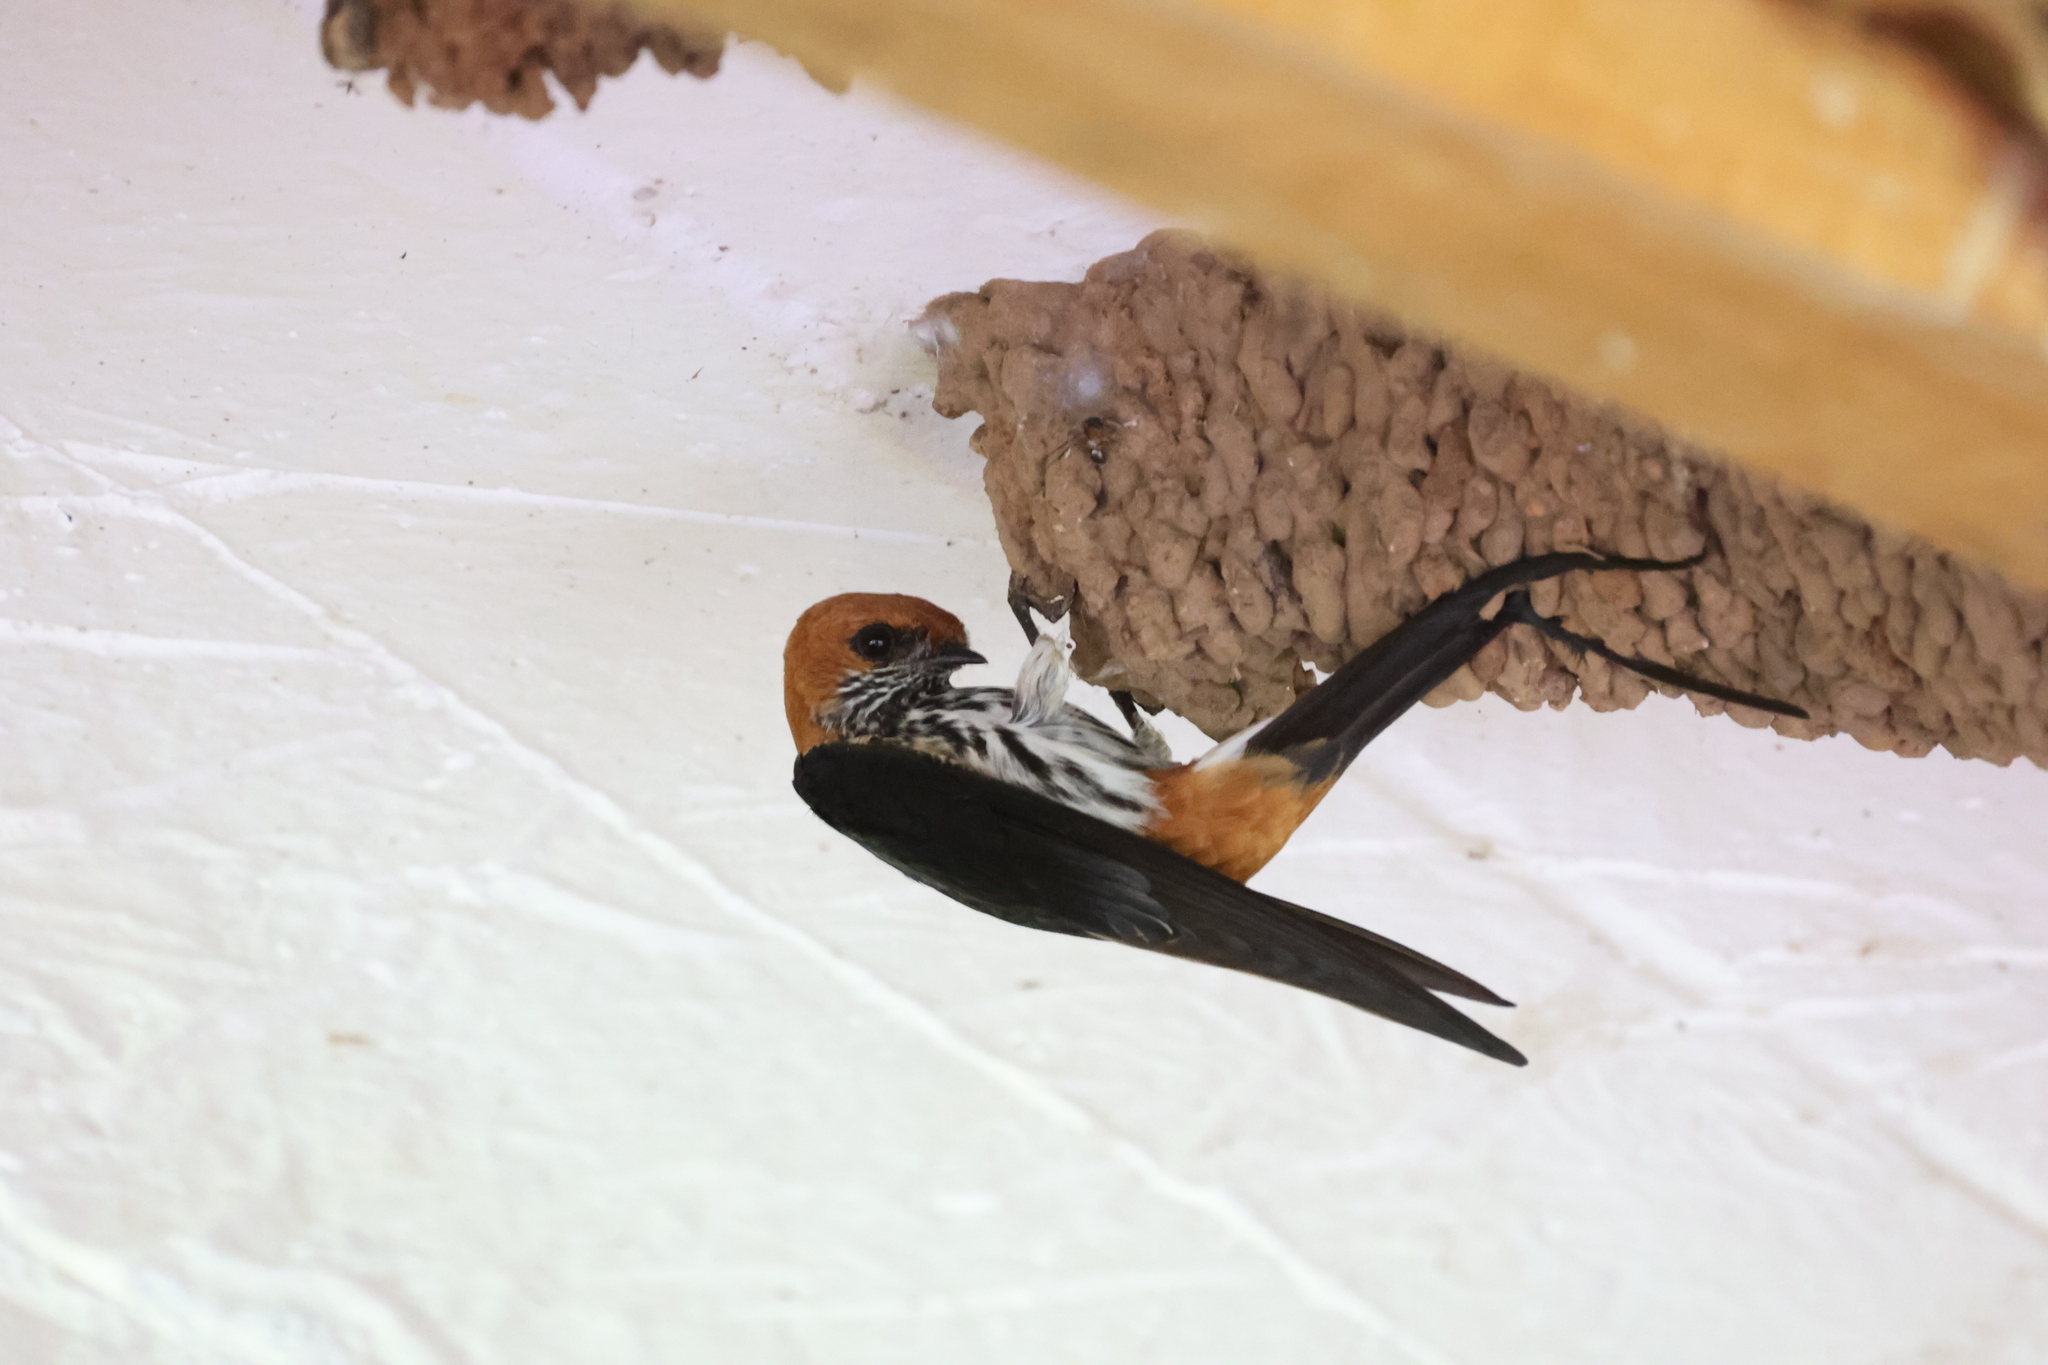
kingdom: Animalia
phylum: Chordata
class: Aves
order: Passeriformes
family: Hirundinidae
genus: Cecropis
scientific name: Cecropis abyssinica
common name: Lesser striped-swallow
